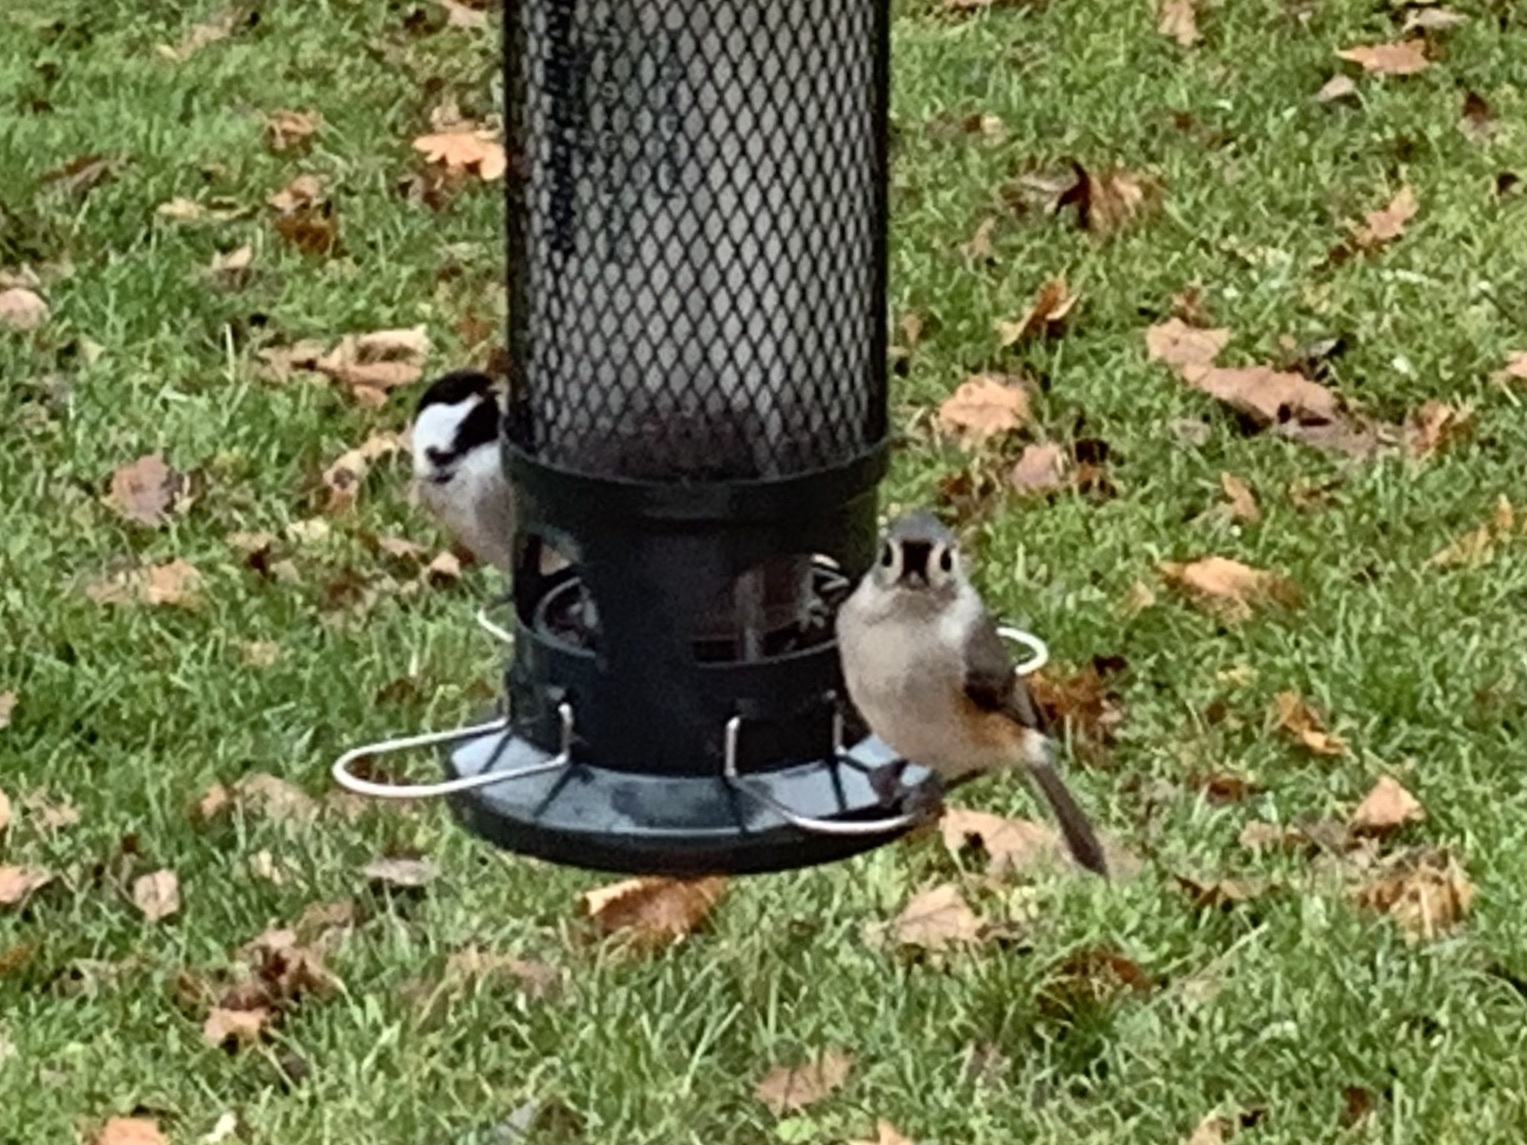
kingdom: Animalia
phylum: Chordata
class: Aves
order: Passeriformes
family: Paridae
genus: Baeolophus
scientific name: Baeolophus bicolor
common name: Tufted titmouse
